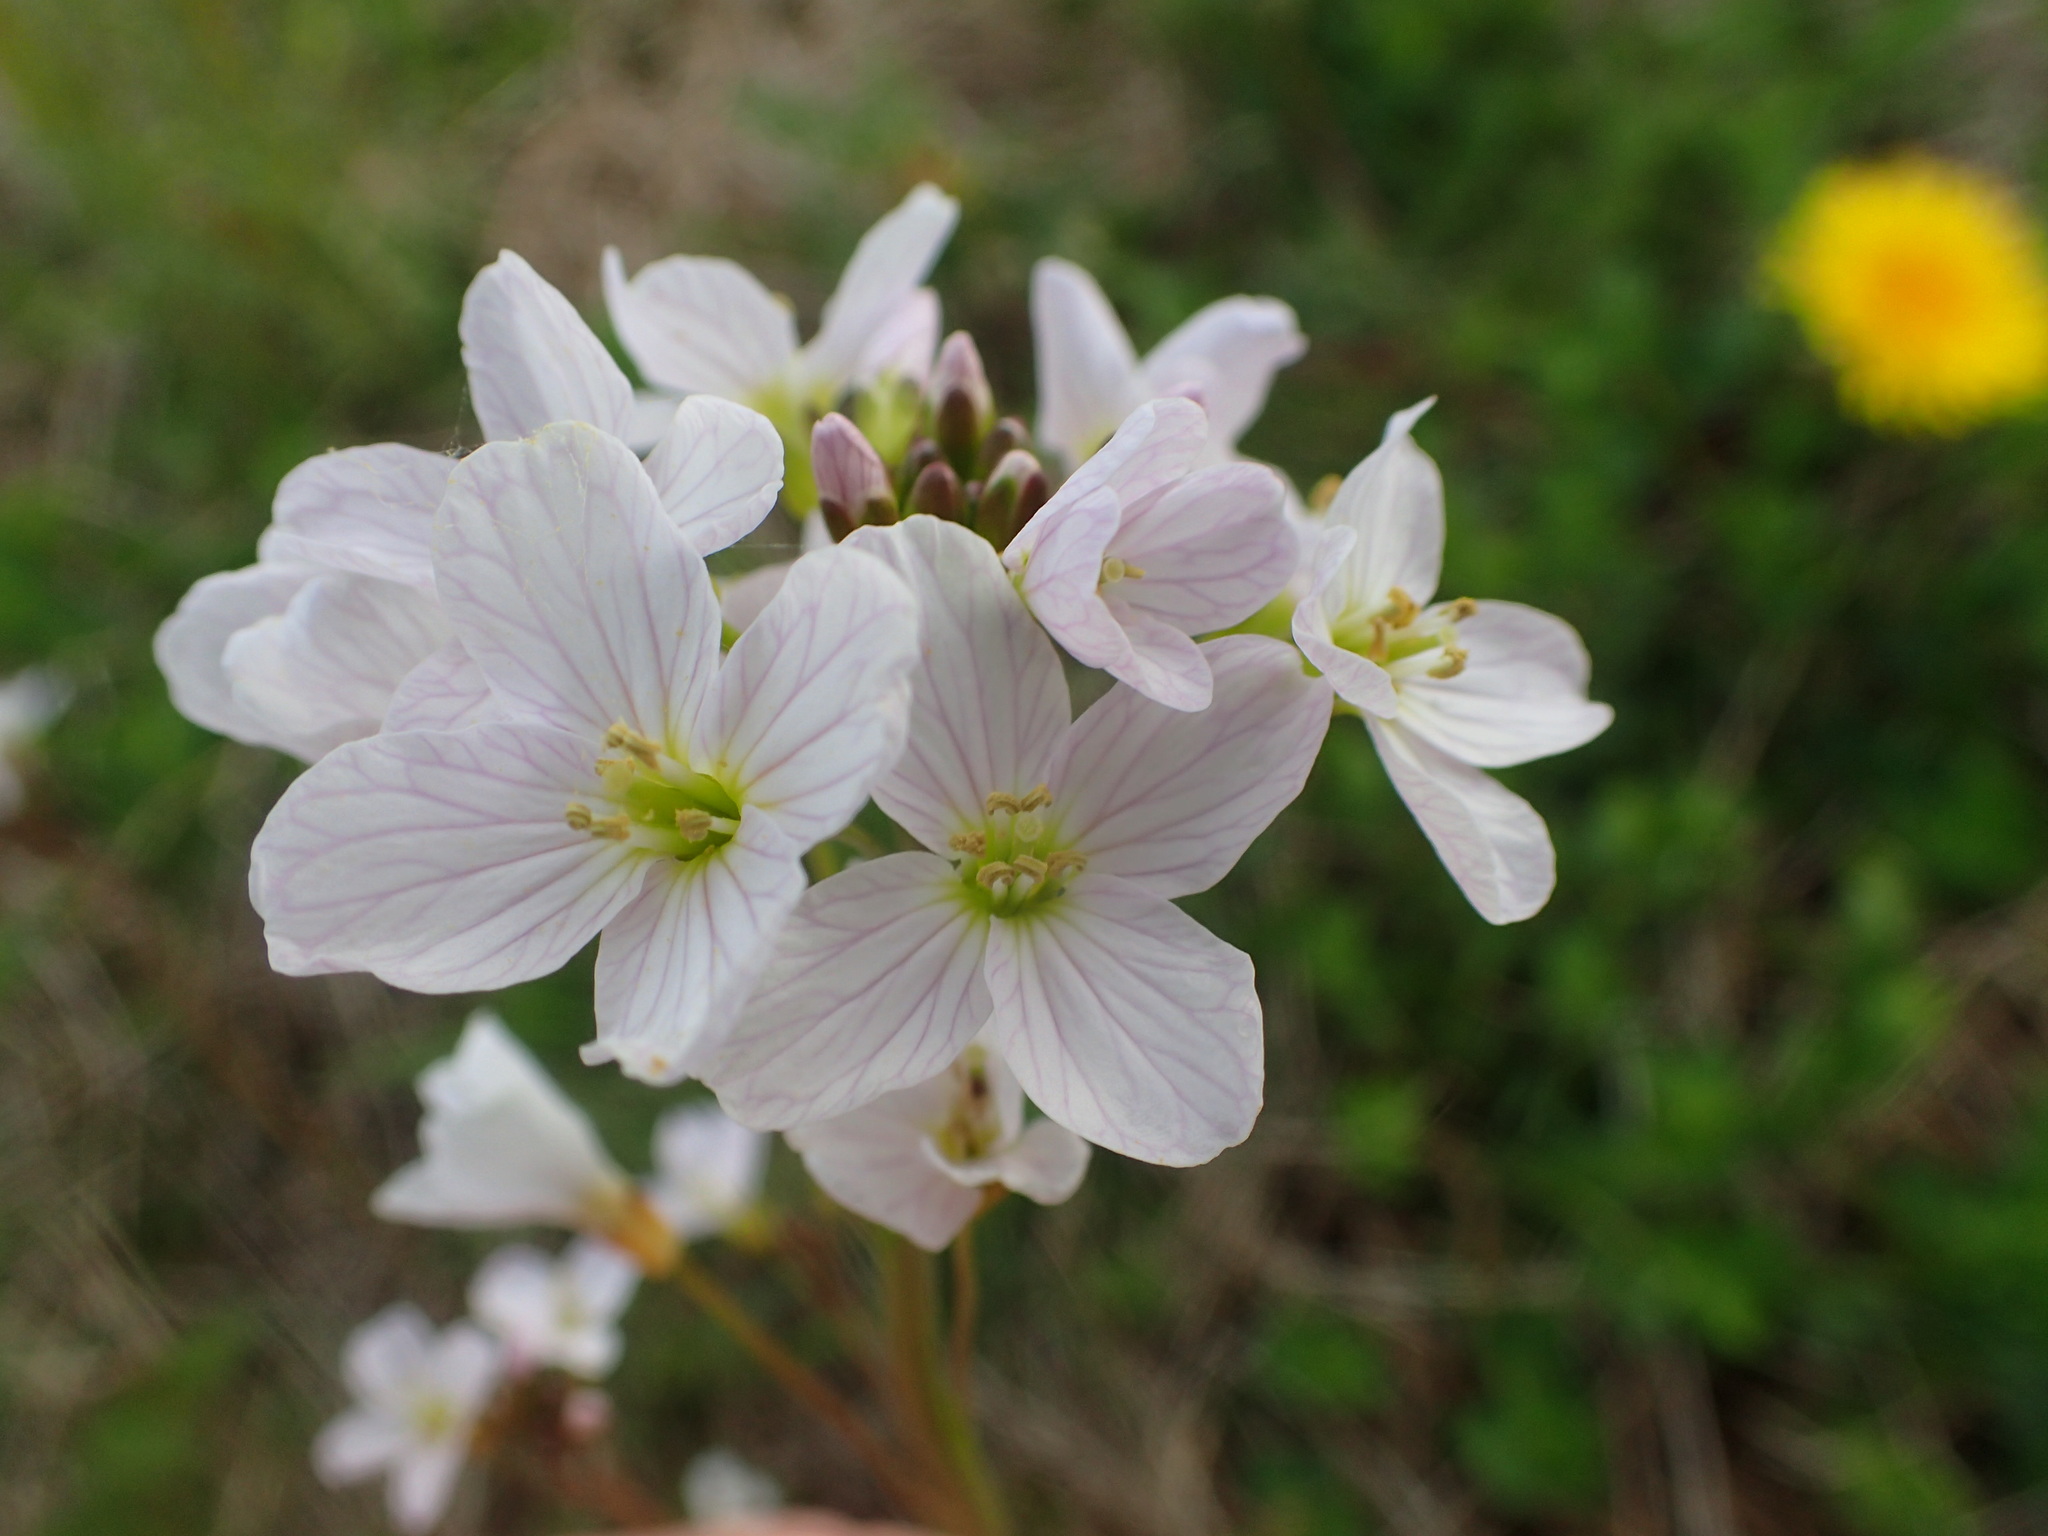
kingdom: Plantae
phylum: Tracheophyta
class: Magnoliopsida
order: Brassicales
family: Brassicaceae
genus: Cardamine
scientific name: Cardamine pratensis
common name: Cuckoo flower
